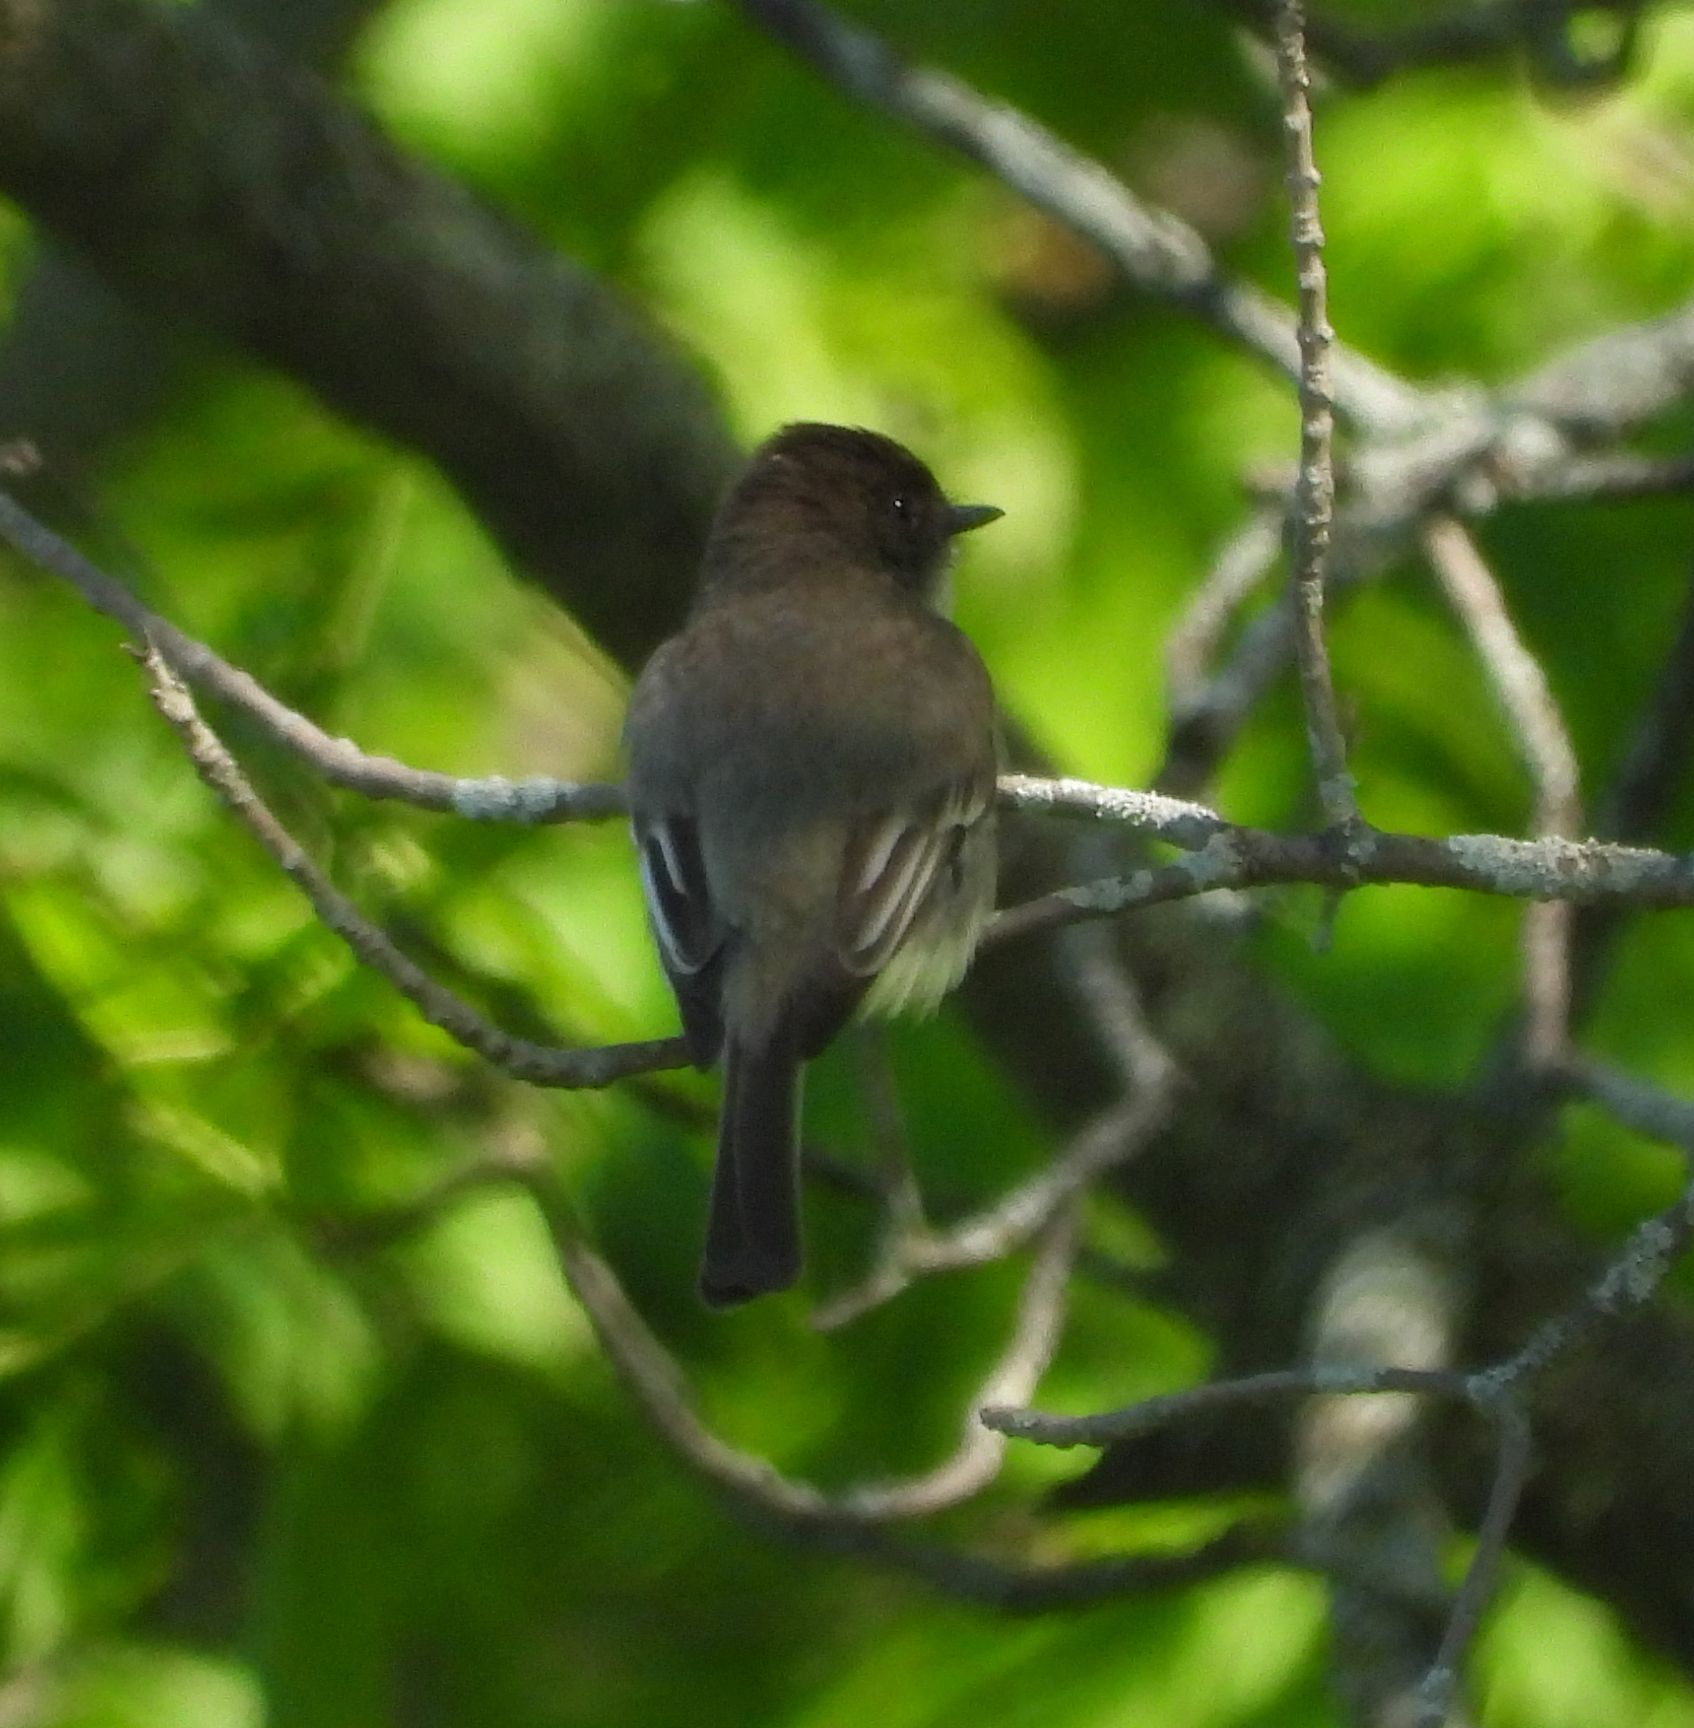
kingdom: Animalia
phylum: Chordata
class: Aves
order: Passeriformes
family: Tyrannidae
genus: Sayornis
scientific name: Sayornis phoebe
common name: Eastern phoebe
